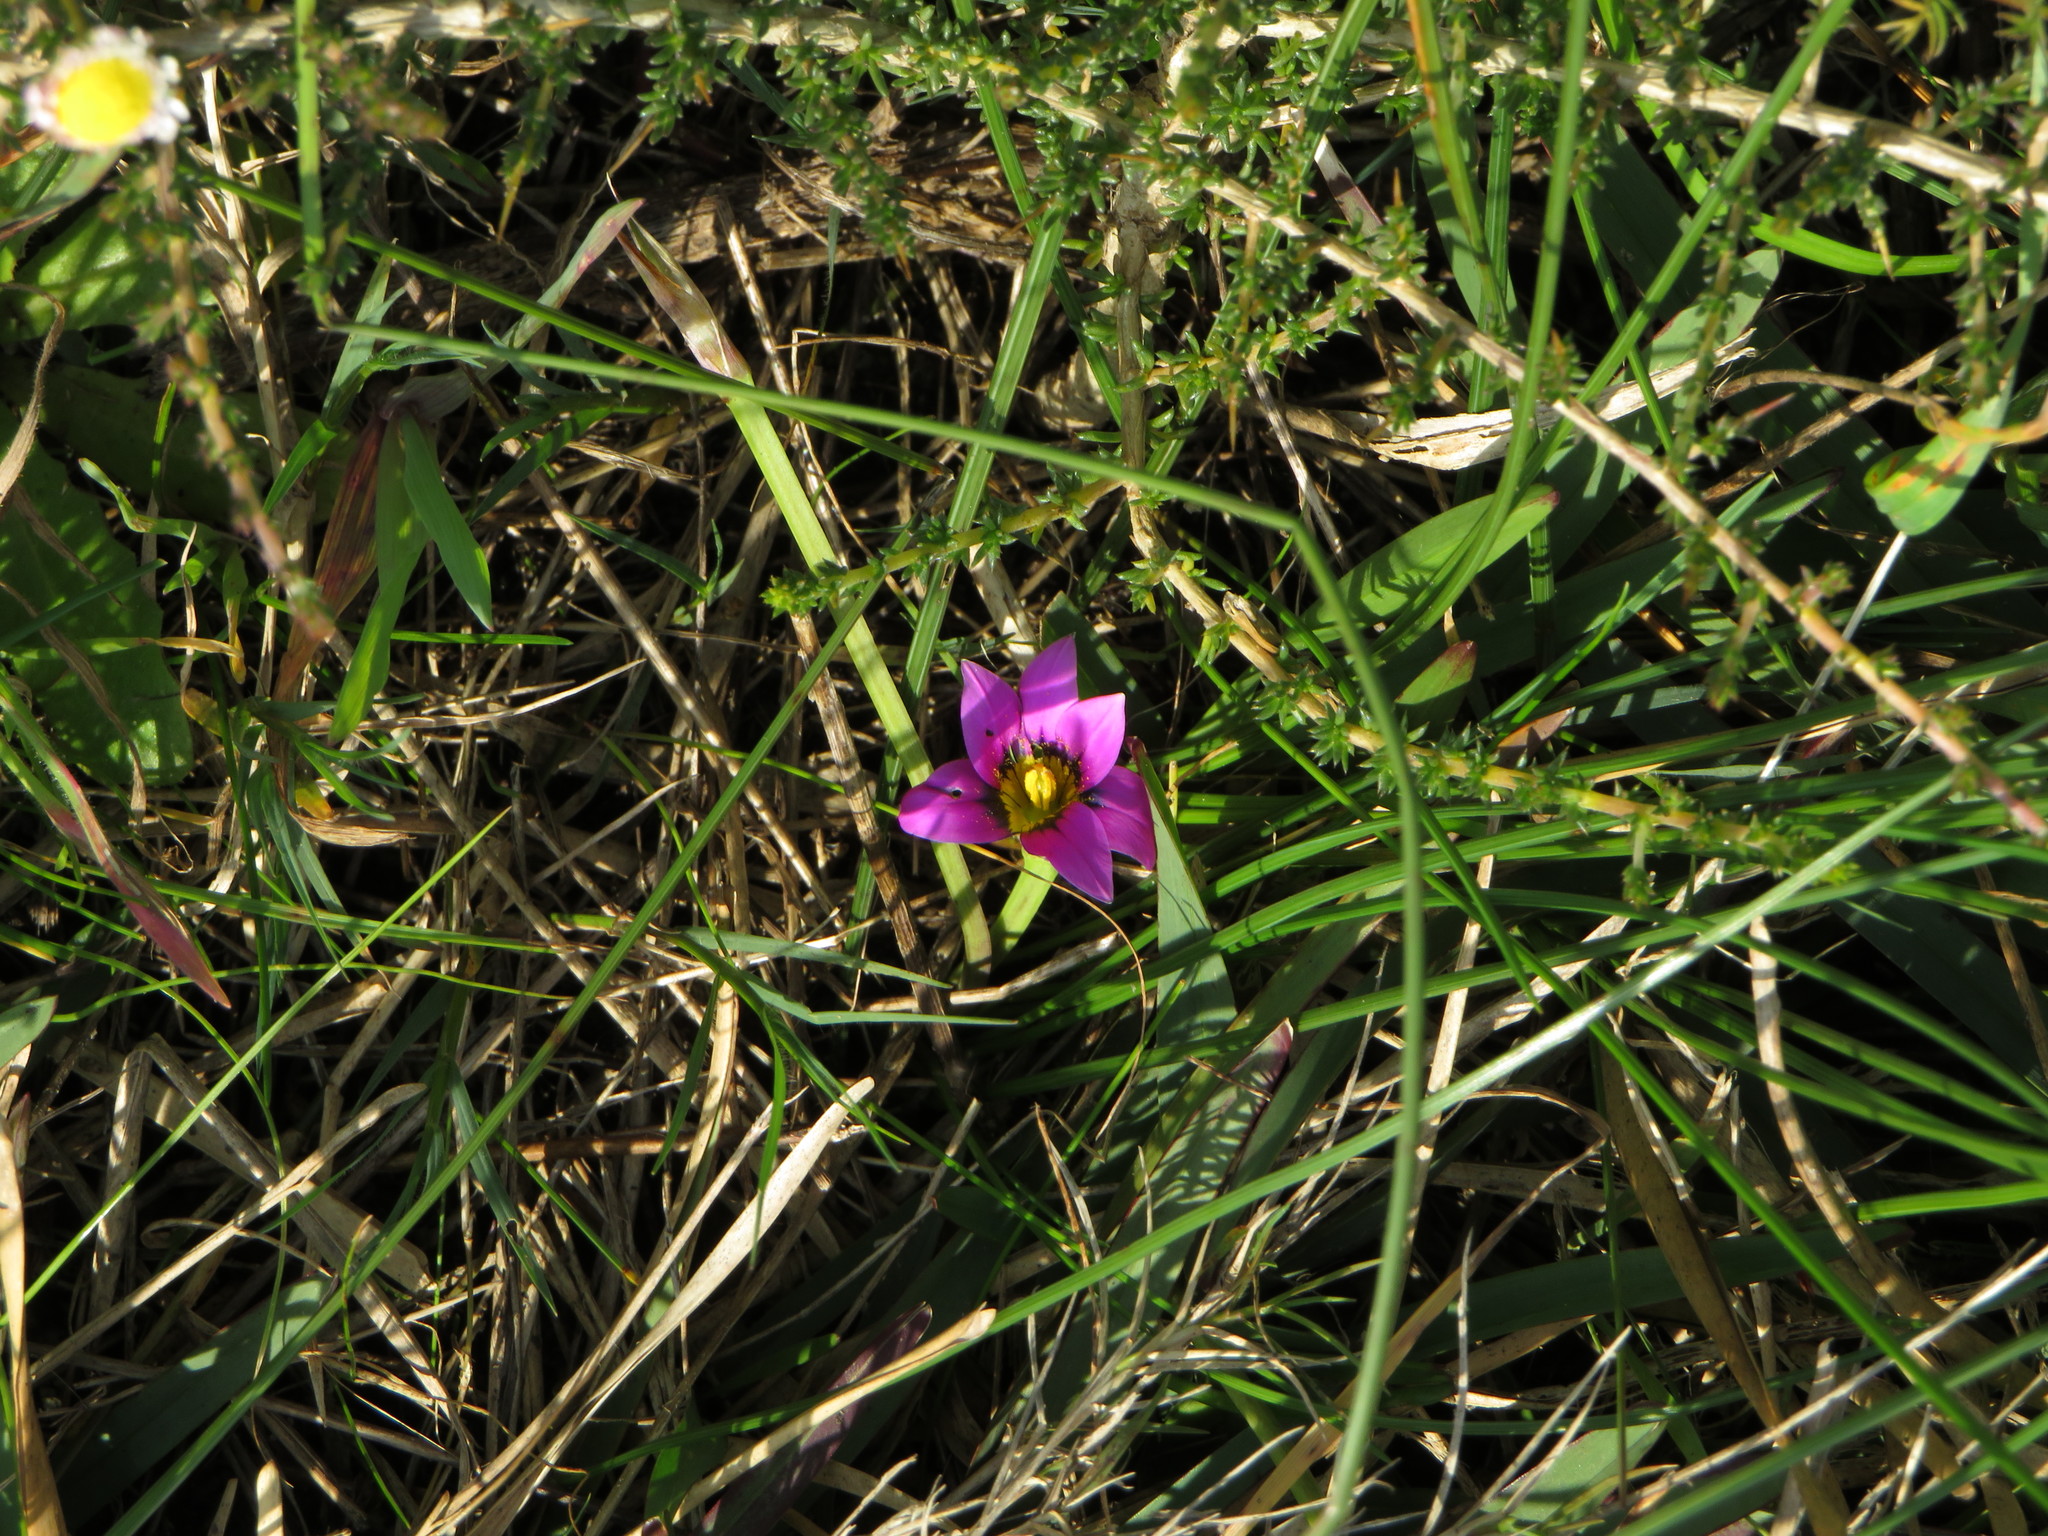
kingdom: Plantae
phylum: Tracheophyta
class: Liliopsida
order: Asparagales
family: Iridaceae
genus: Romulea
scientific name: Romulea rosea
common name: Oniongrass
